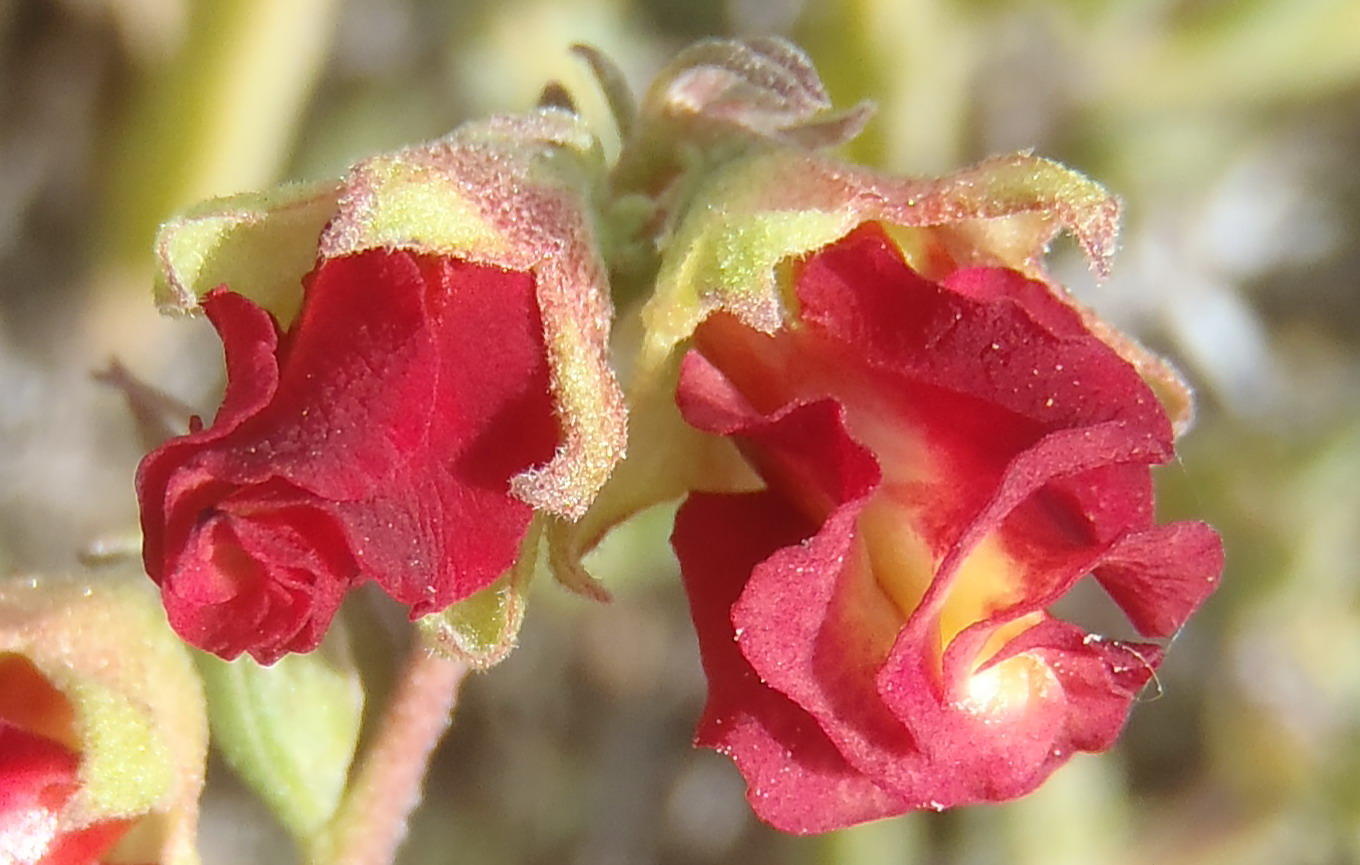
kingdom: Plantae
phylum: Tracheophyta
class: Magnoliopsida
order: Malvales
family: Malvaceae
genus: Hermannia
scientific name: Hermannia filifolia
